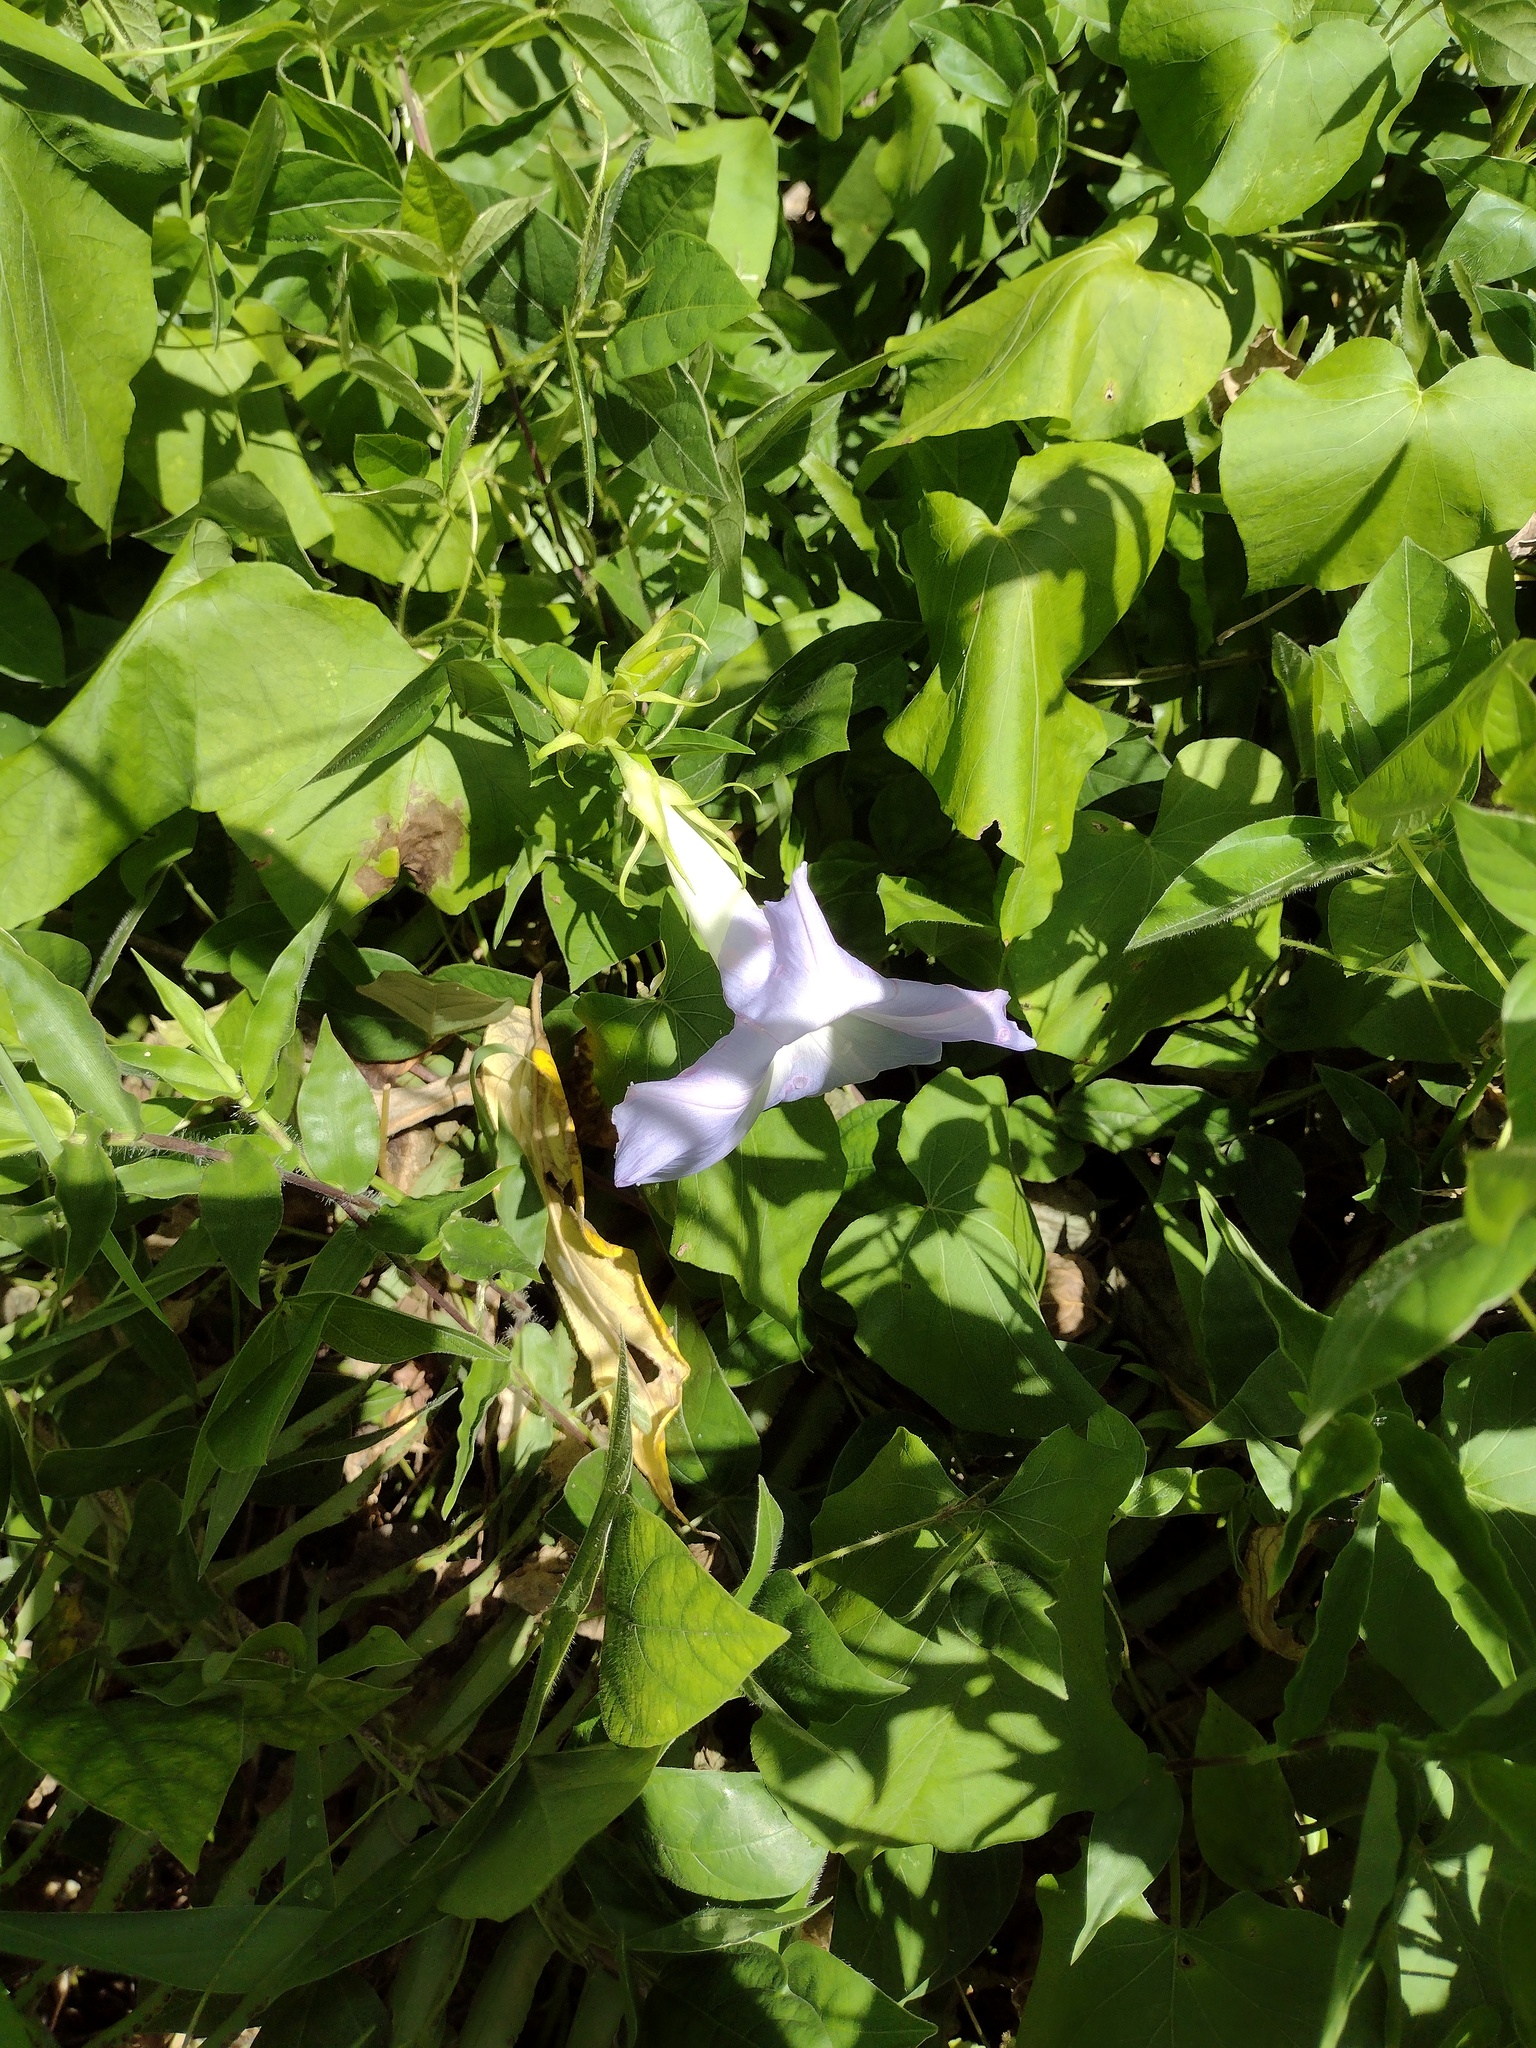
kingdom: Plantae
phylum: Tracheophyta
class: Magnoliopsida
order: Solanales
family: Convolvulaceae
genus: Ipomoea
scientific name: Ipomoea indica
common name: Blue dawnflower
